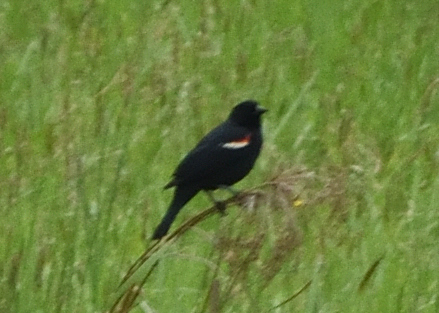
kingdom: Animalia
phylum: Chordata
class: Aves
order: Passeriformes
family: Icteridae
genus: Agelaius
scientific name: Agelaius phoeniceus
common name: Red-winged blackbird
